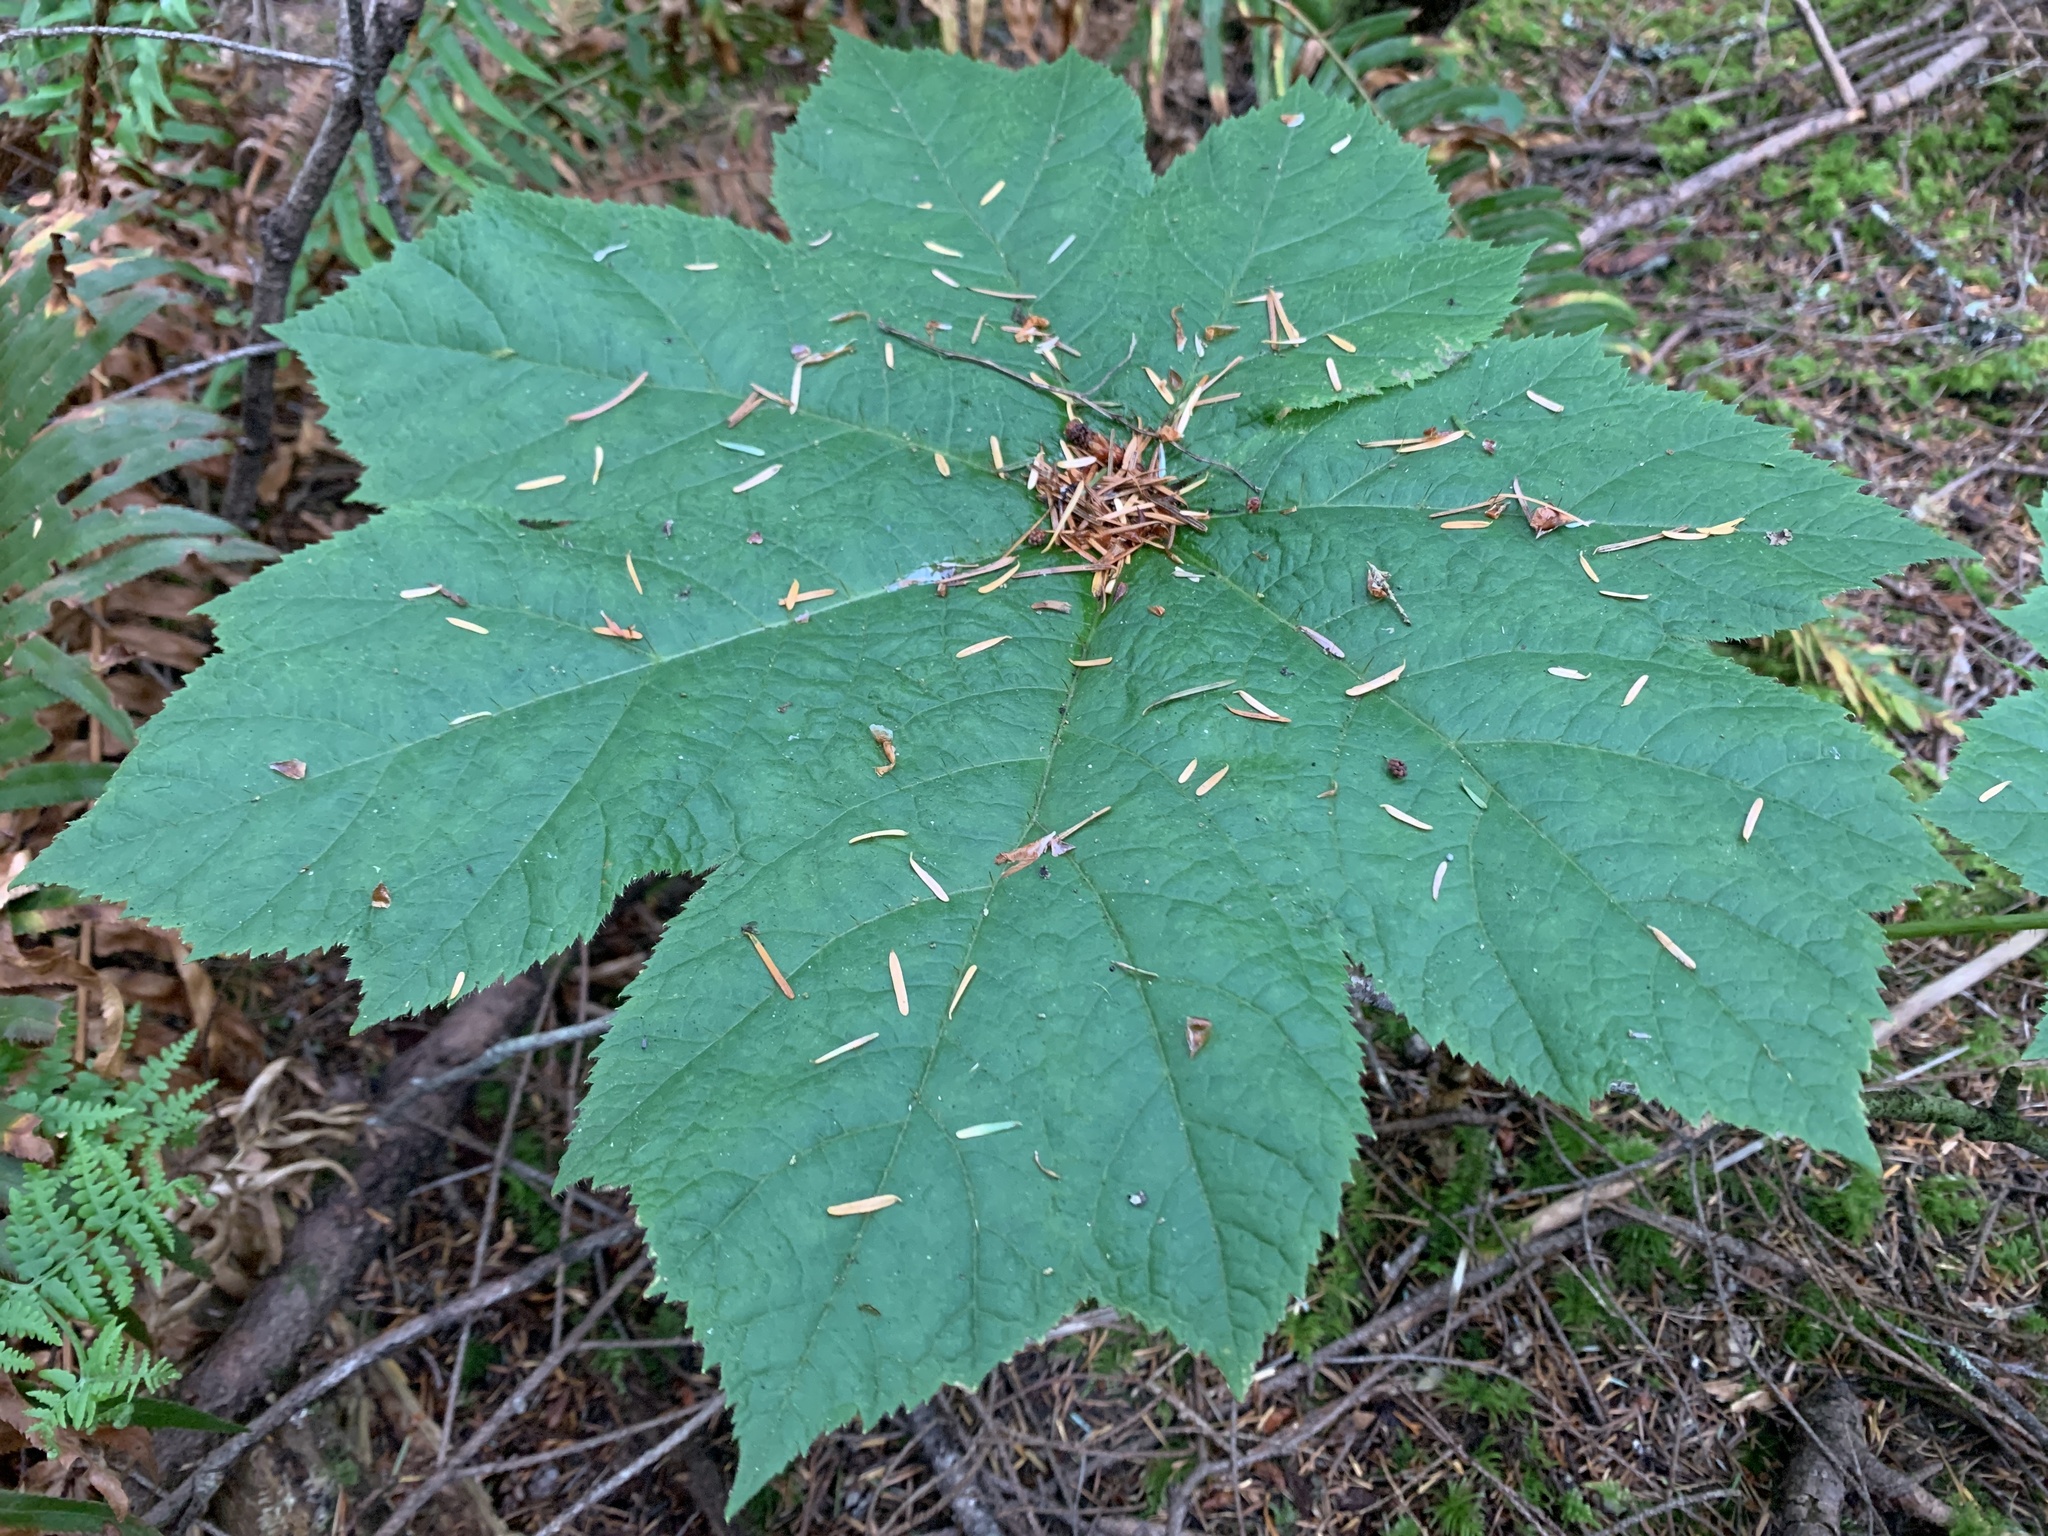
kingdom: Plantae
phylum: Tracheophyta
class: Magnoliopsida
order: Apiales
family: Araliaceae
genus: Oplopanax
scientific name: Oplopanax horridus
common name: Devil's walking-stick
